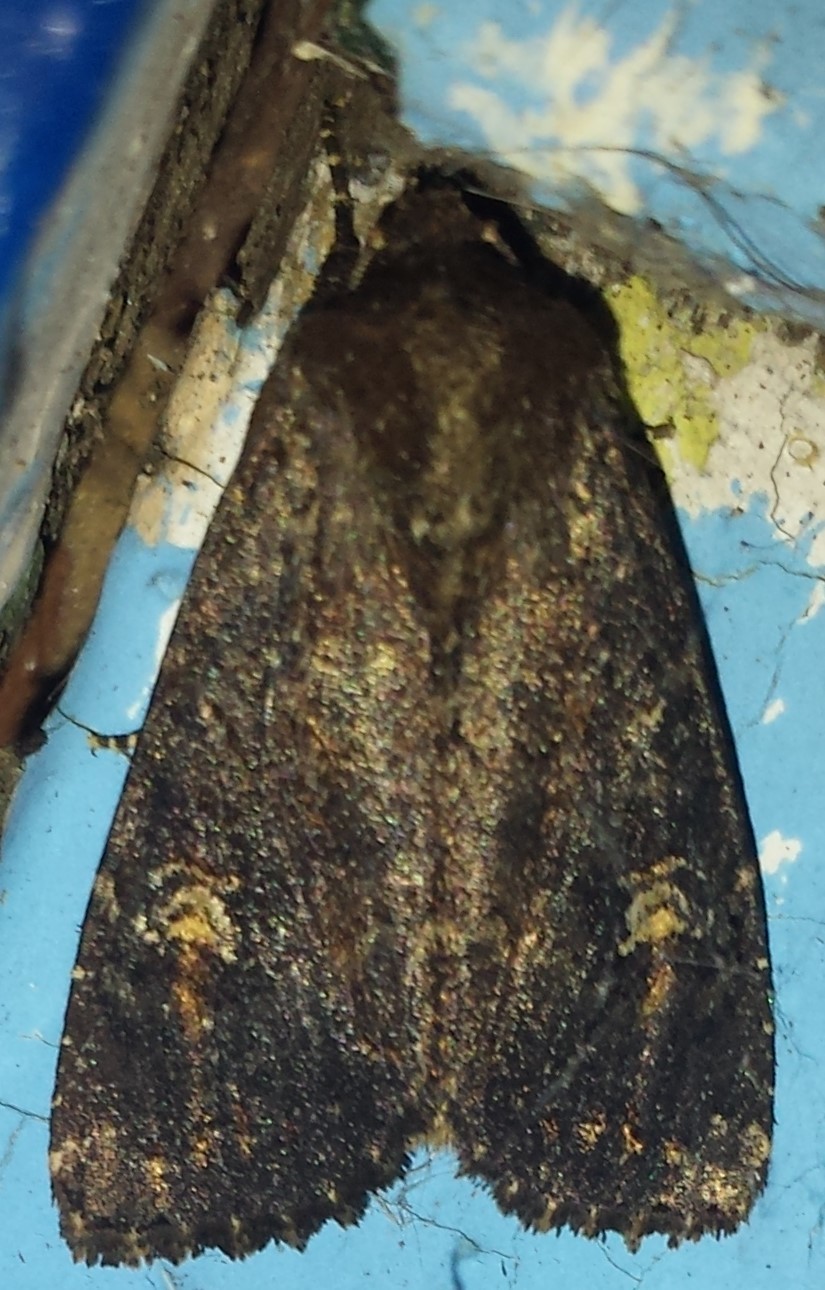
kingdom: Animalia
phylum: Arthropoda
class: Insecta
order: Lepidoptera
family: Noctuidae
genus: Apamea
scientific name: Apamea dubitans
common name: Doubtful apamea moth
